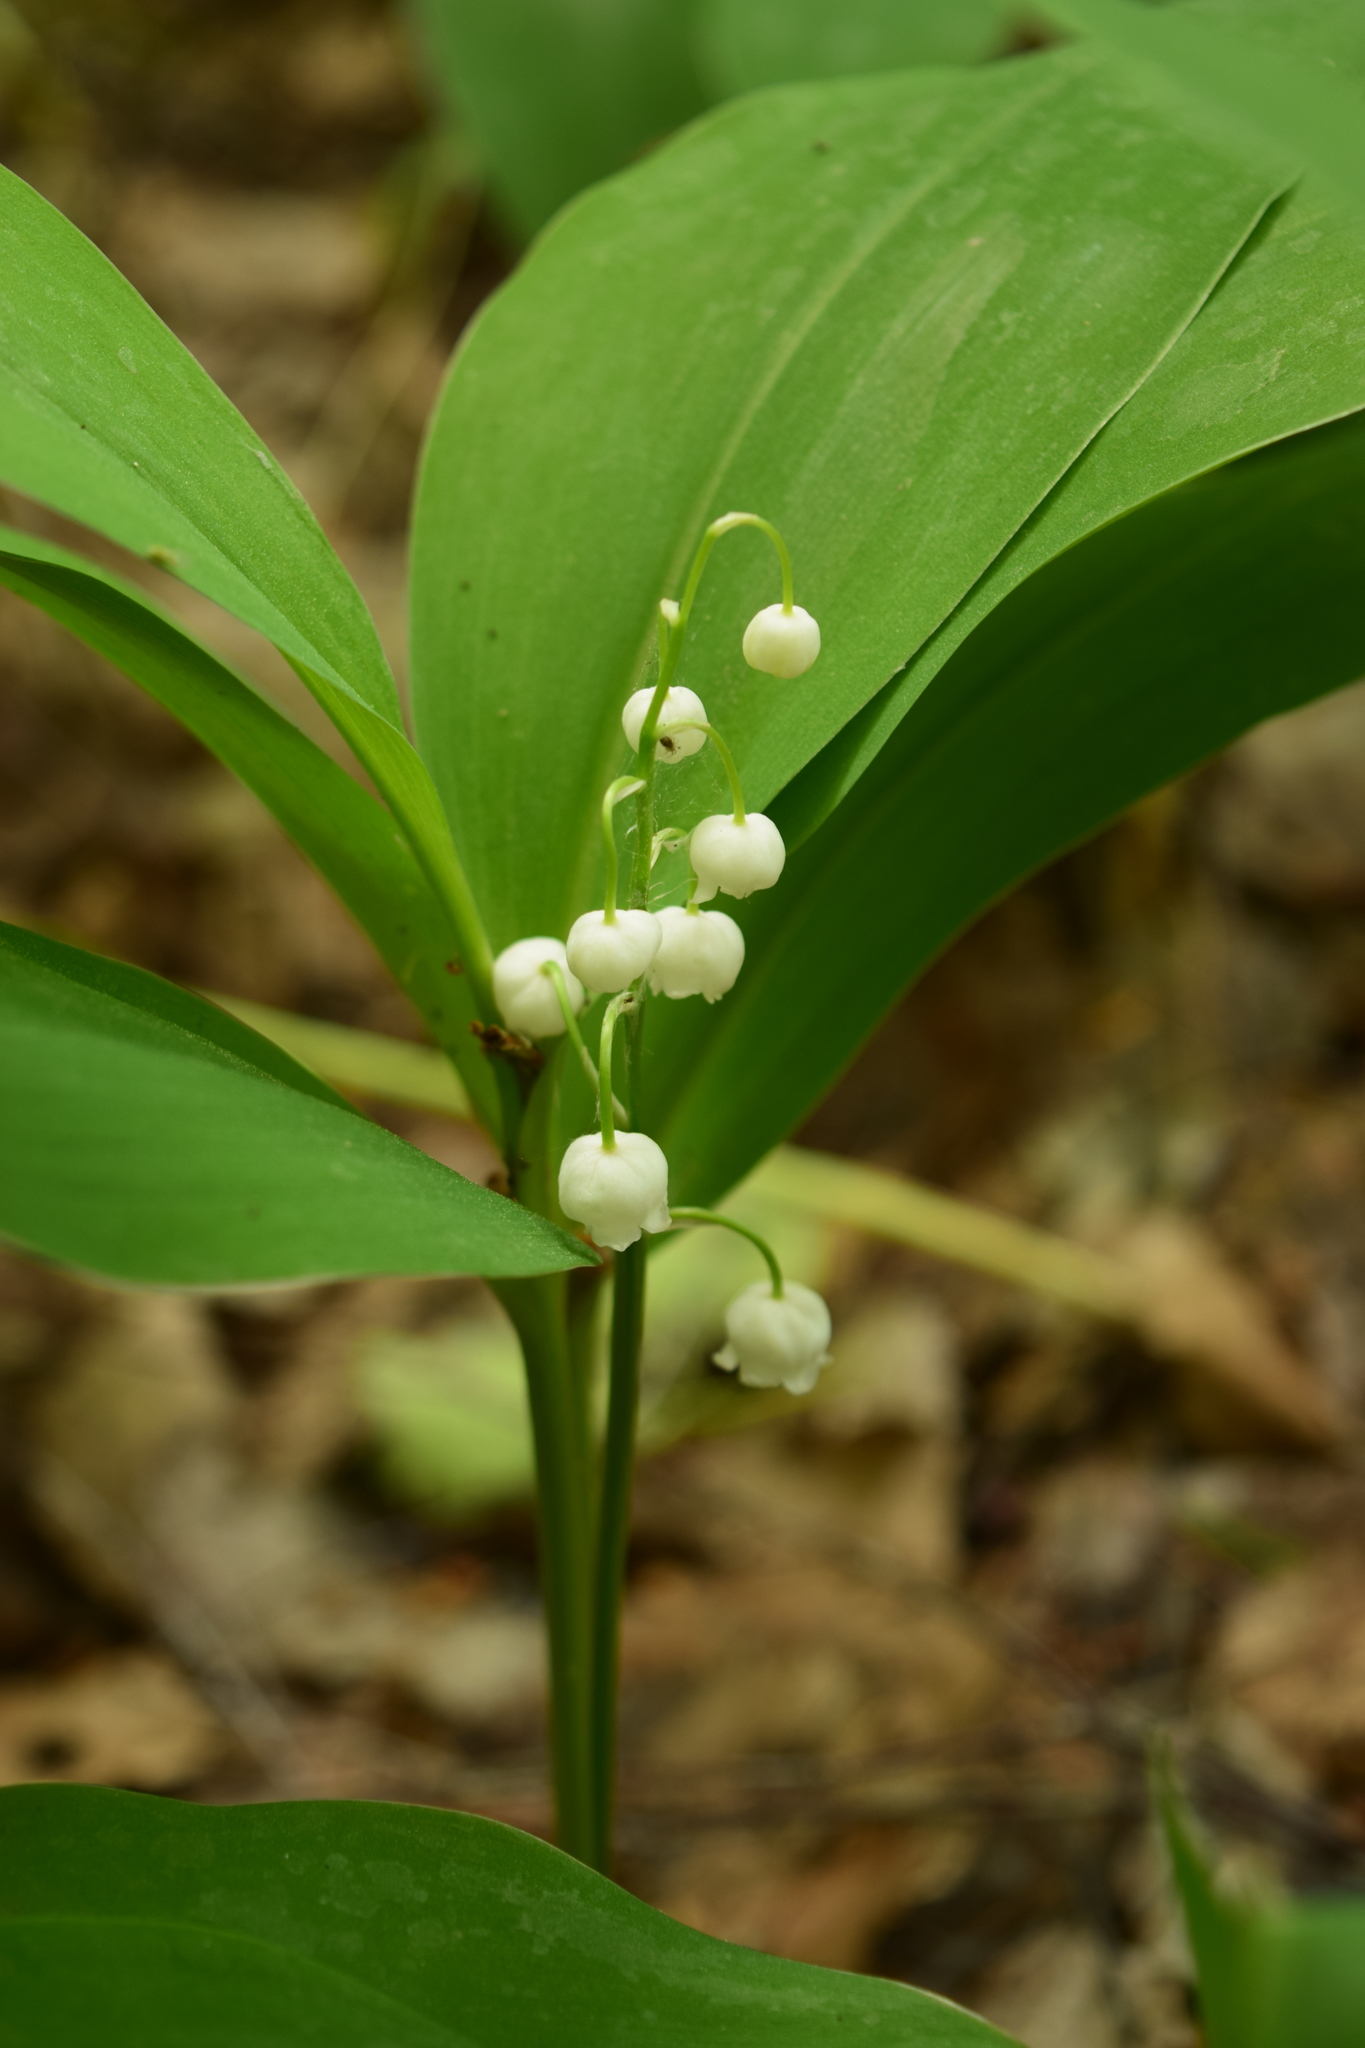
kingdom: Plantae
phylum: Tracheophyta
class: Liliopsida
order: Asparagales
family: Asparagaceae
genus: Convallaria
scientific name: Convallaria majalis
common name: Lily-of-the-valley
